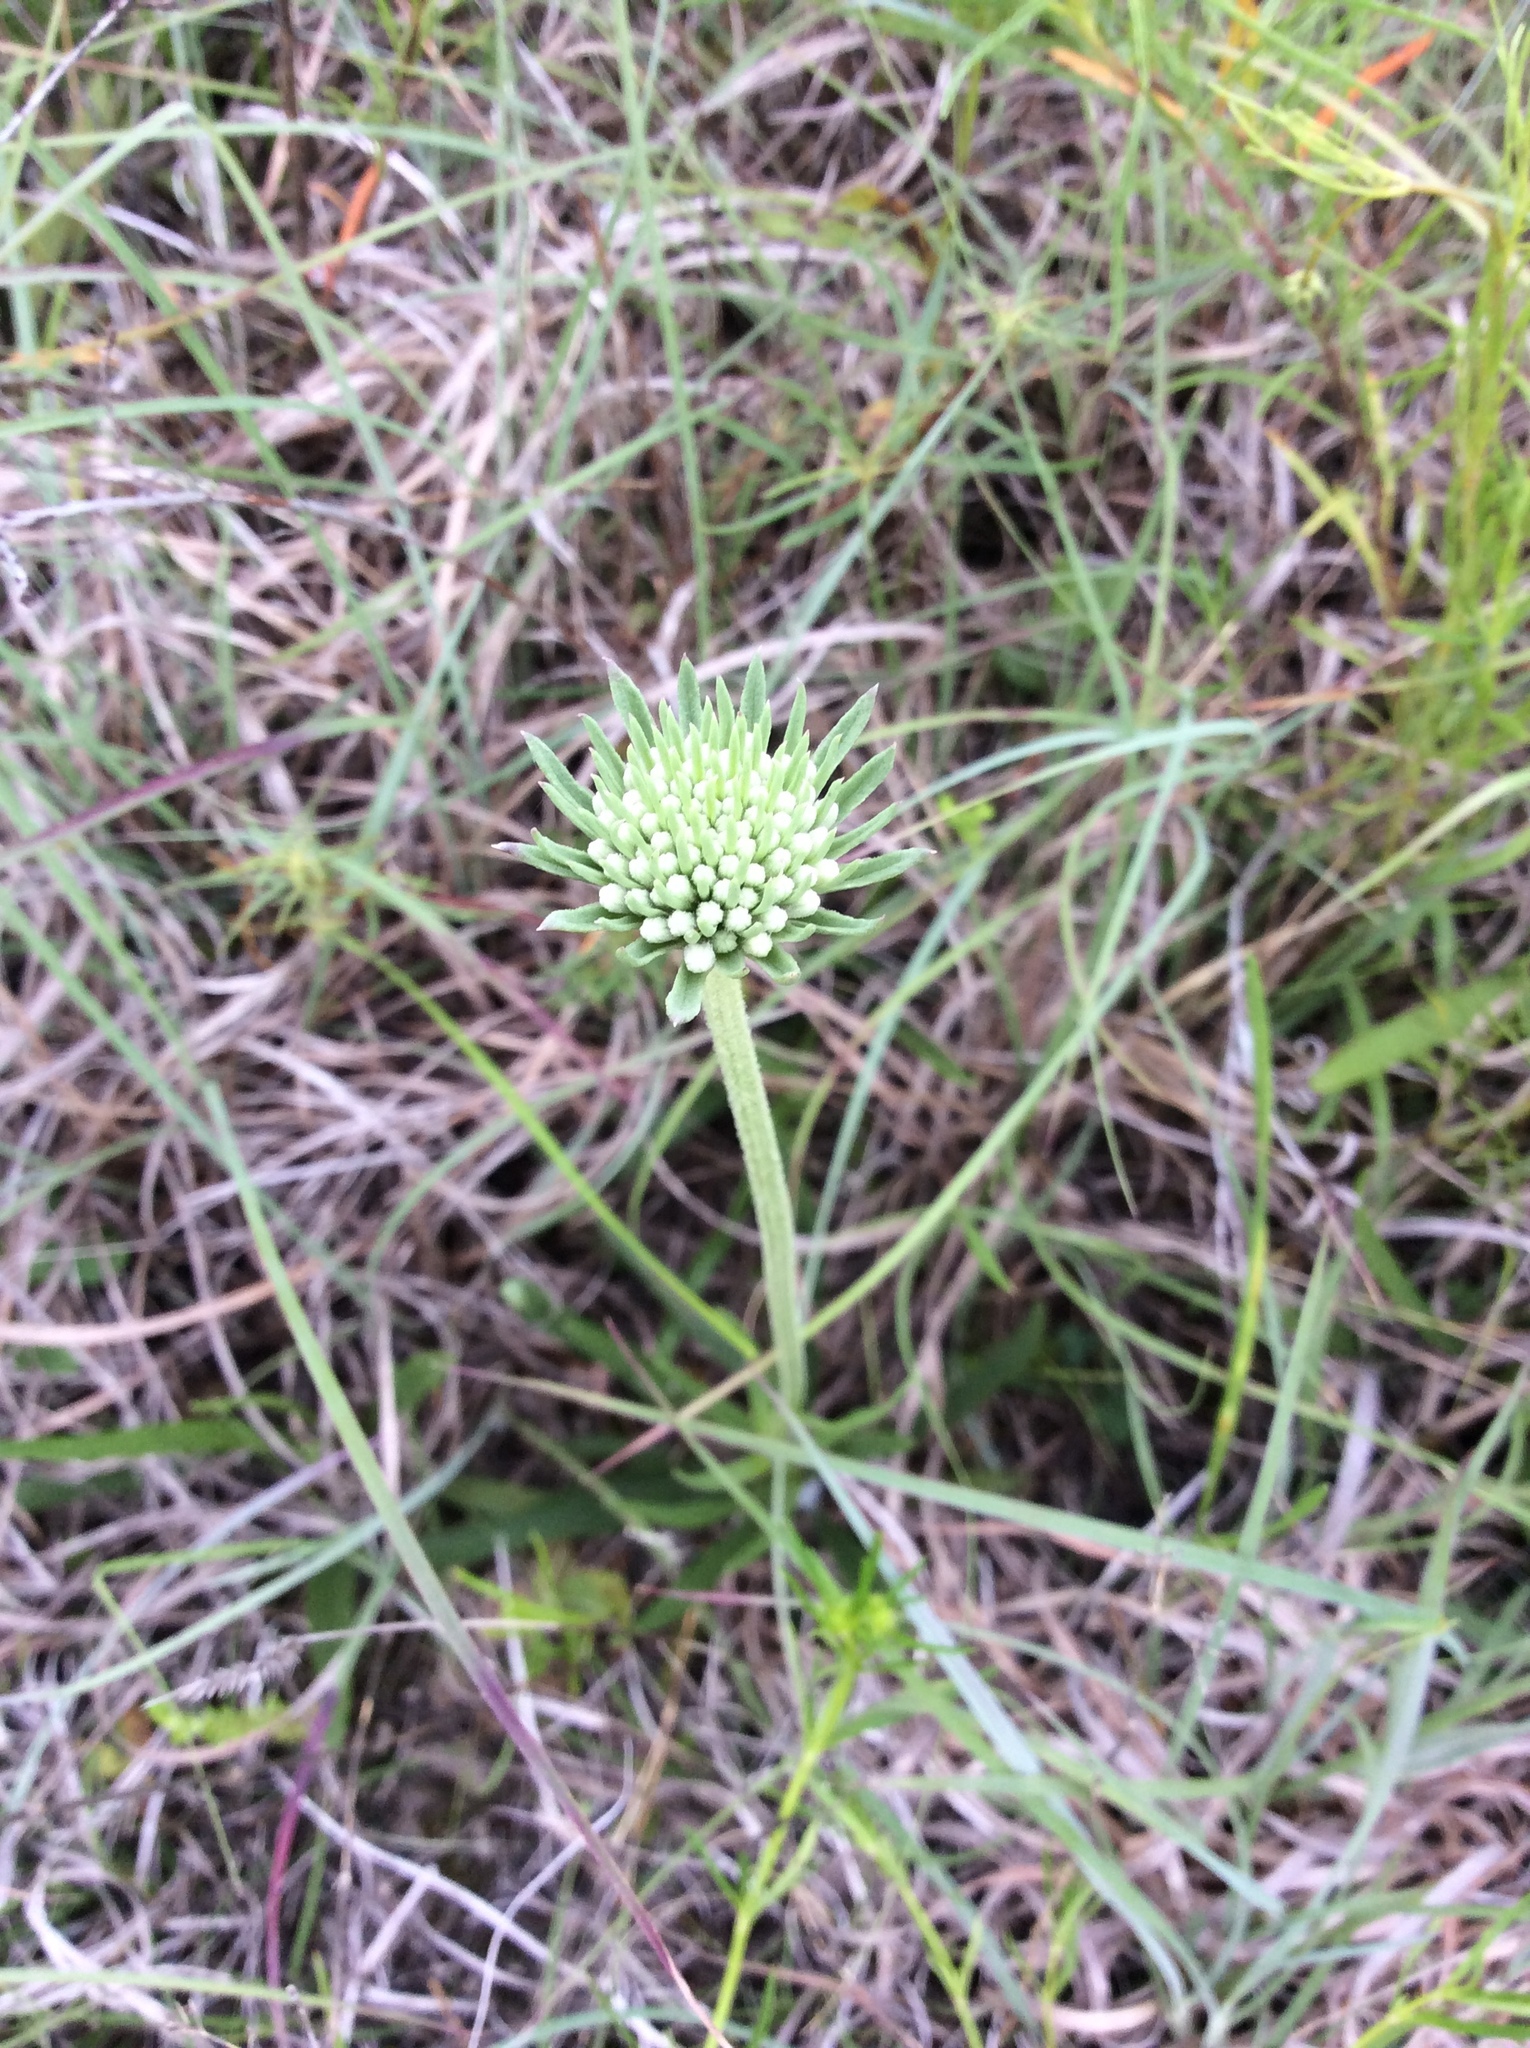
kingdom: Plantae
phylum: Tracheophyta
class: Magnoliopsida
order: Asterales
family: Asteraceae
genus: Marshallia
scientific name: Marshallia caespitosa
